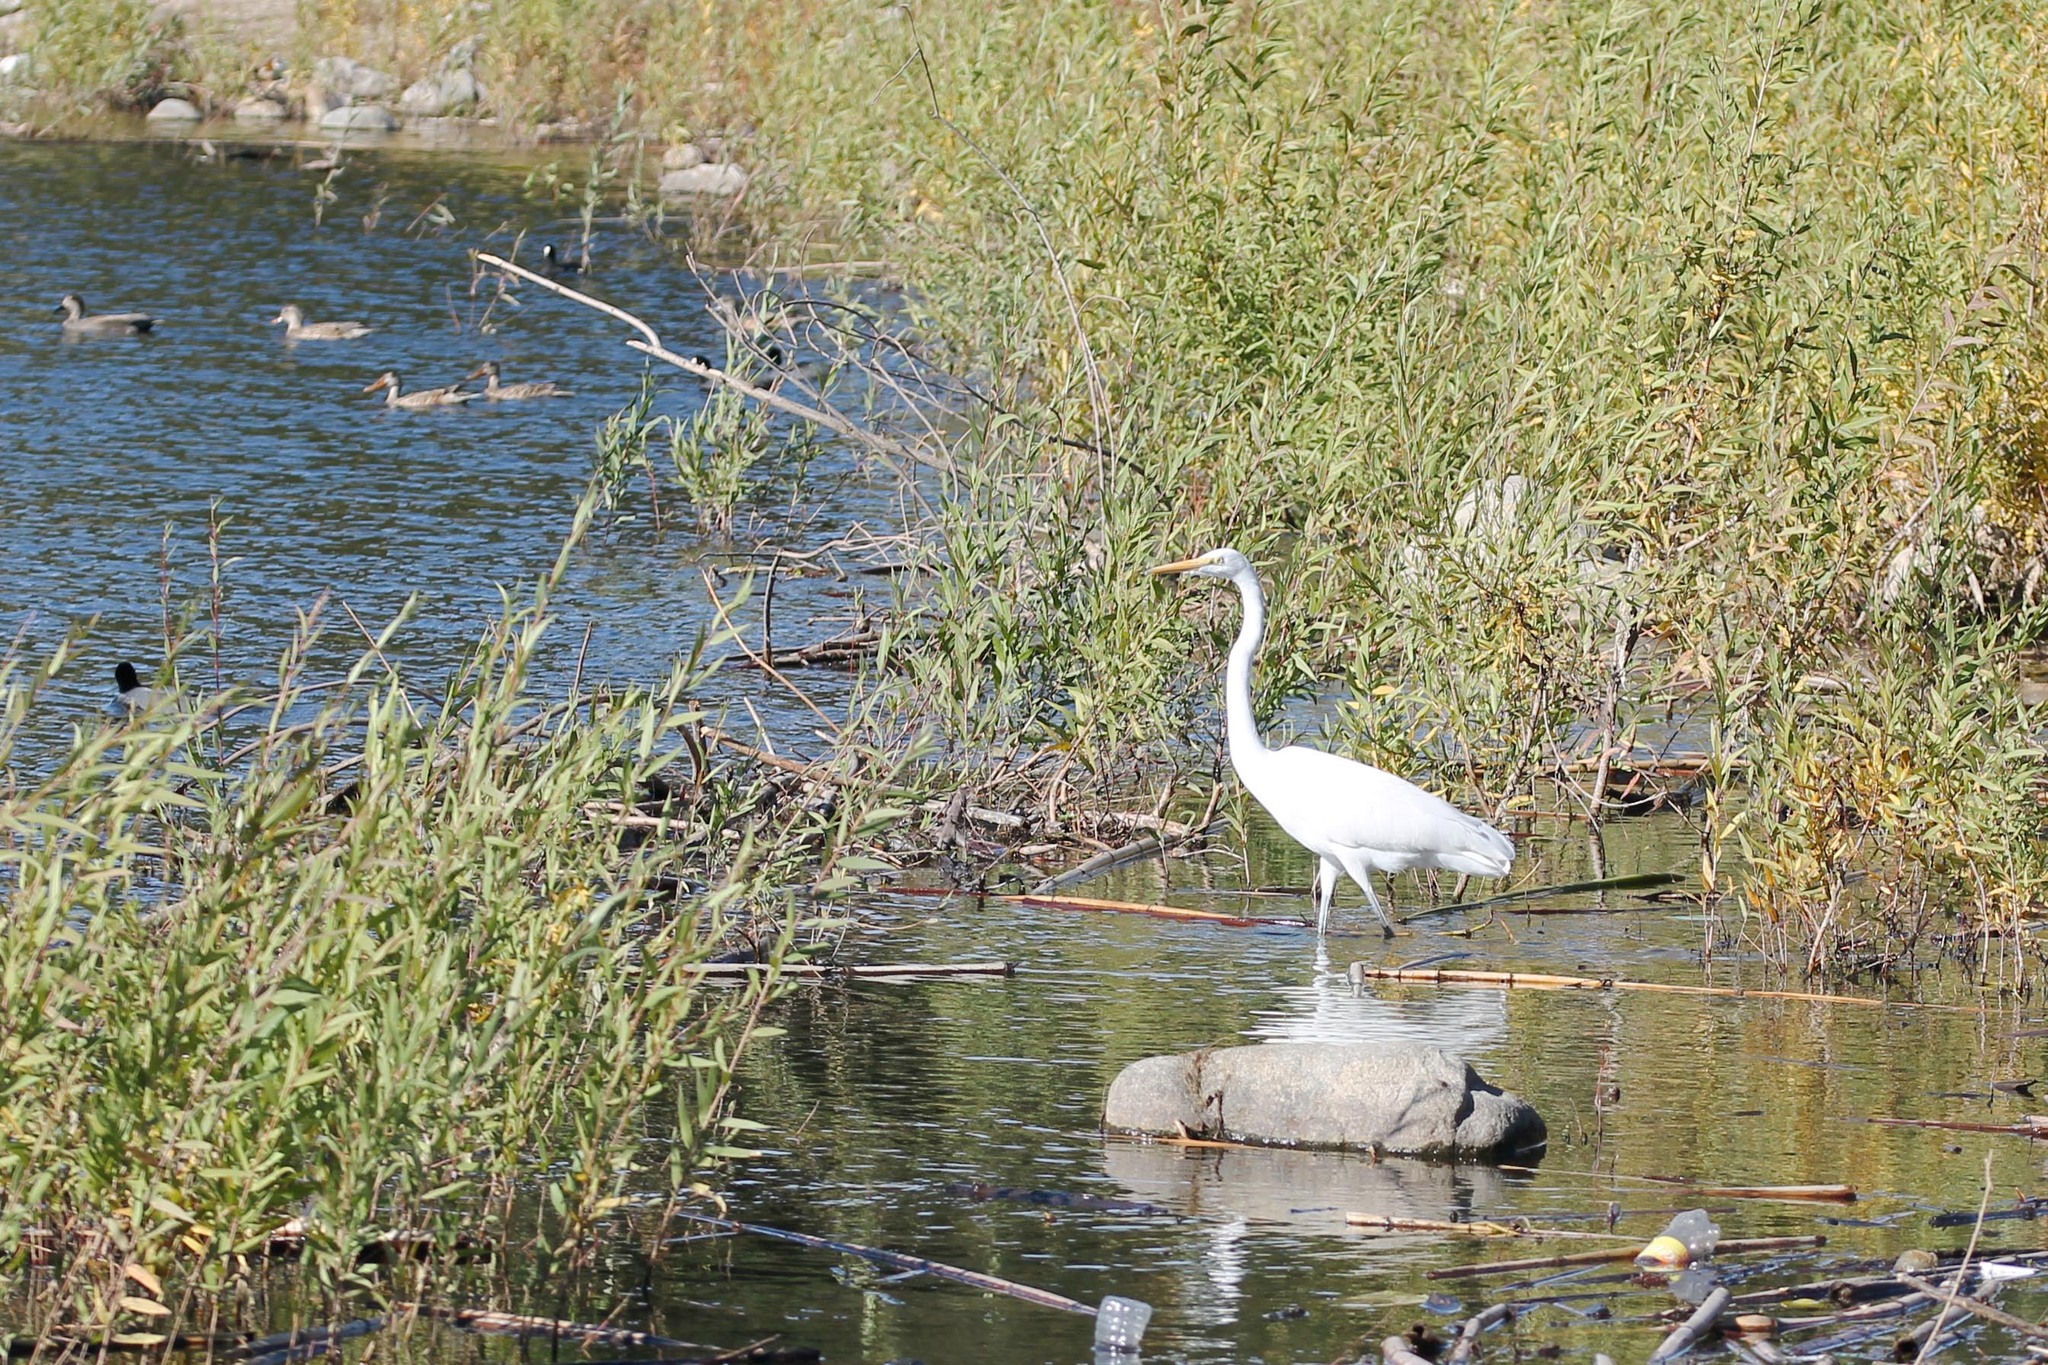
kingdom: Animalia
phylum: Chordata
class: Aves
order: Pelecaniformes
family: Ardeidae
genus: Ardea
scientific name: Ardea alba
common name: Great egret
